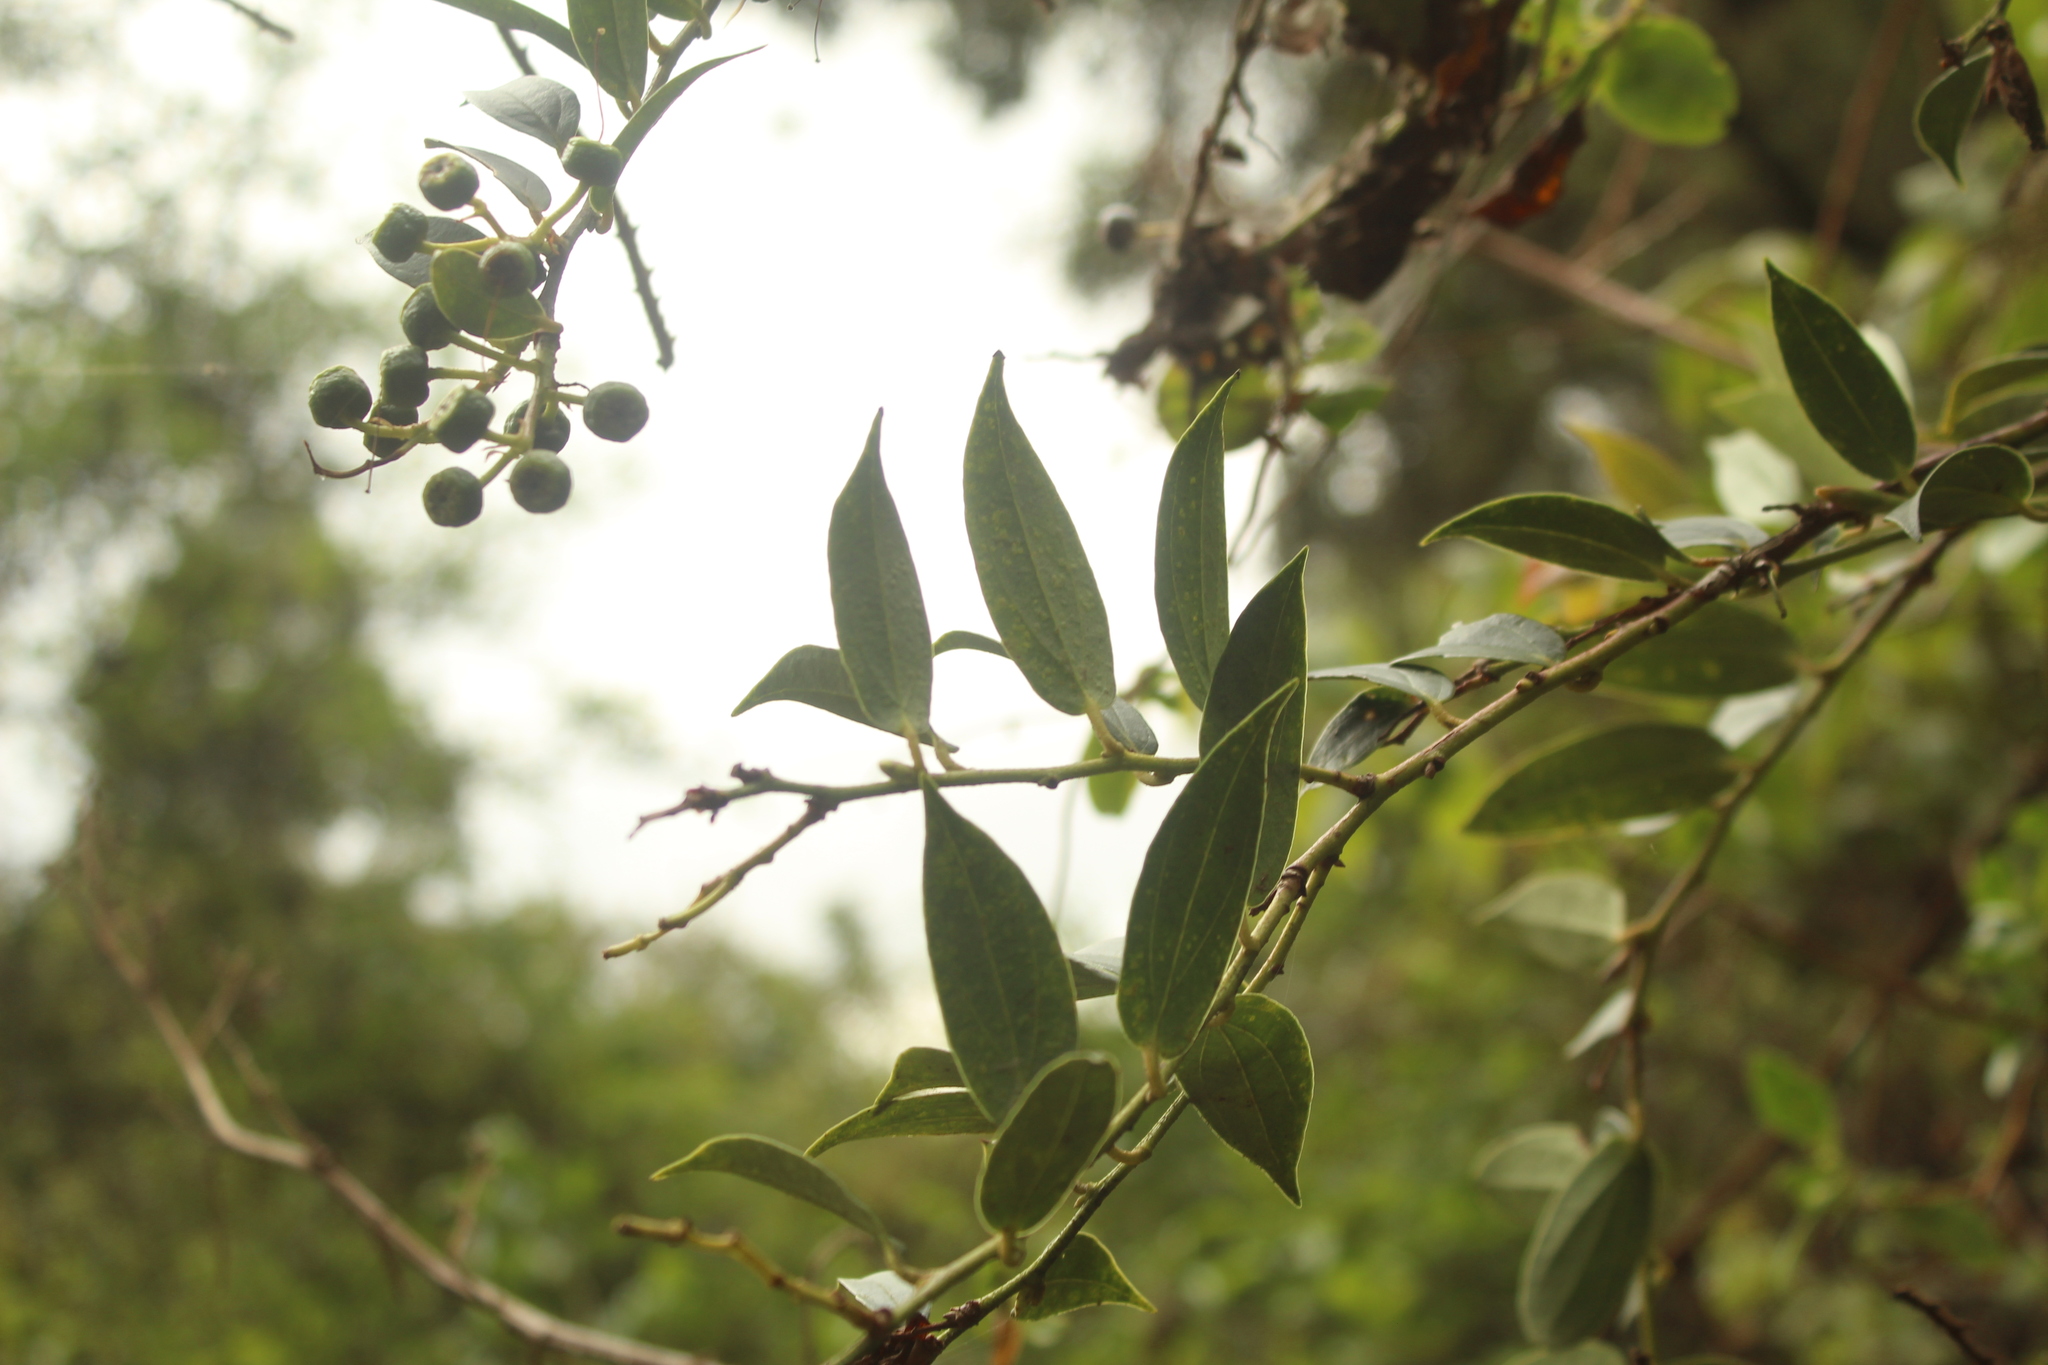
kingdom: Plantae
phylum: Tracheophyta
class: Magnoliopsida
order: Ericales
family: Ericaceae
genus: Cavendishia
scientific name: Cavendishia bracteata
